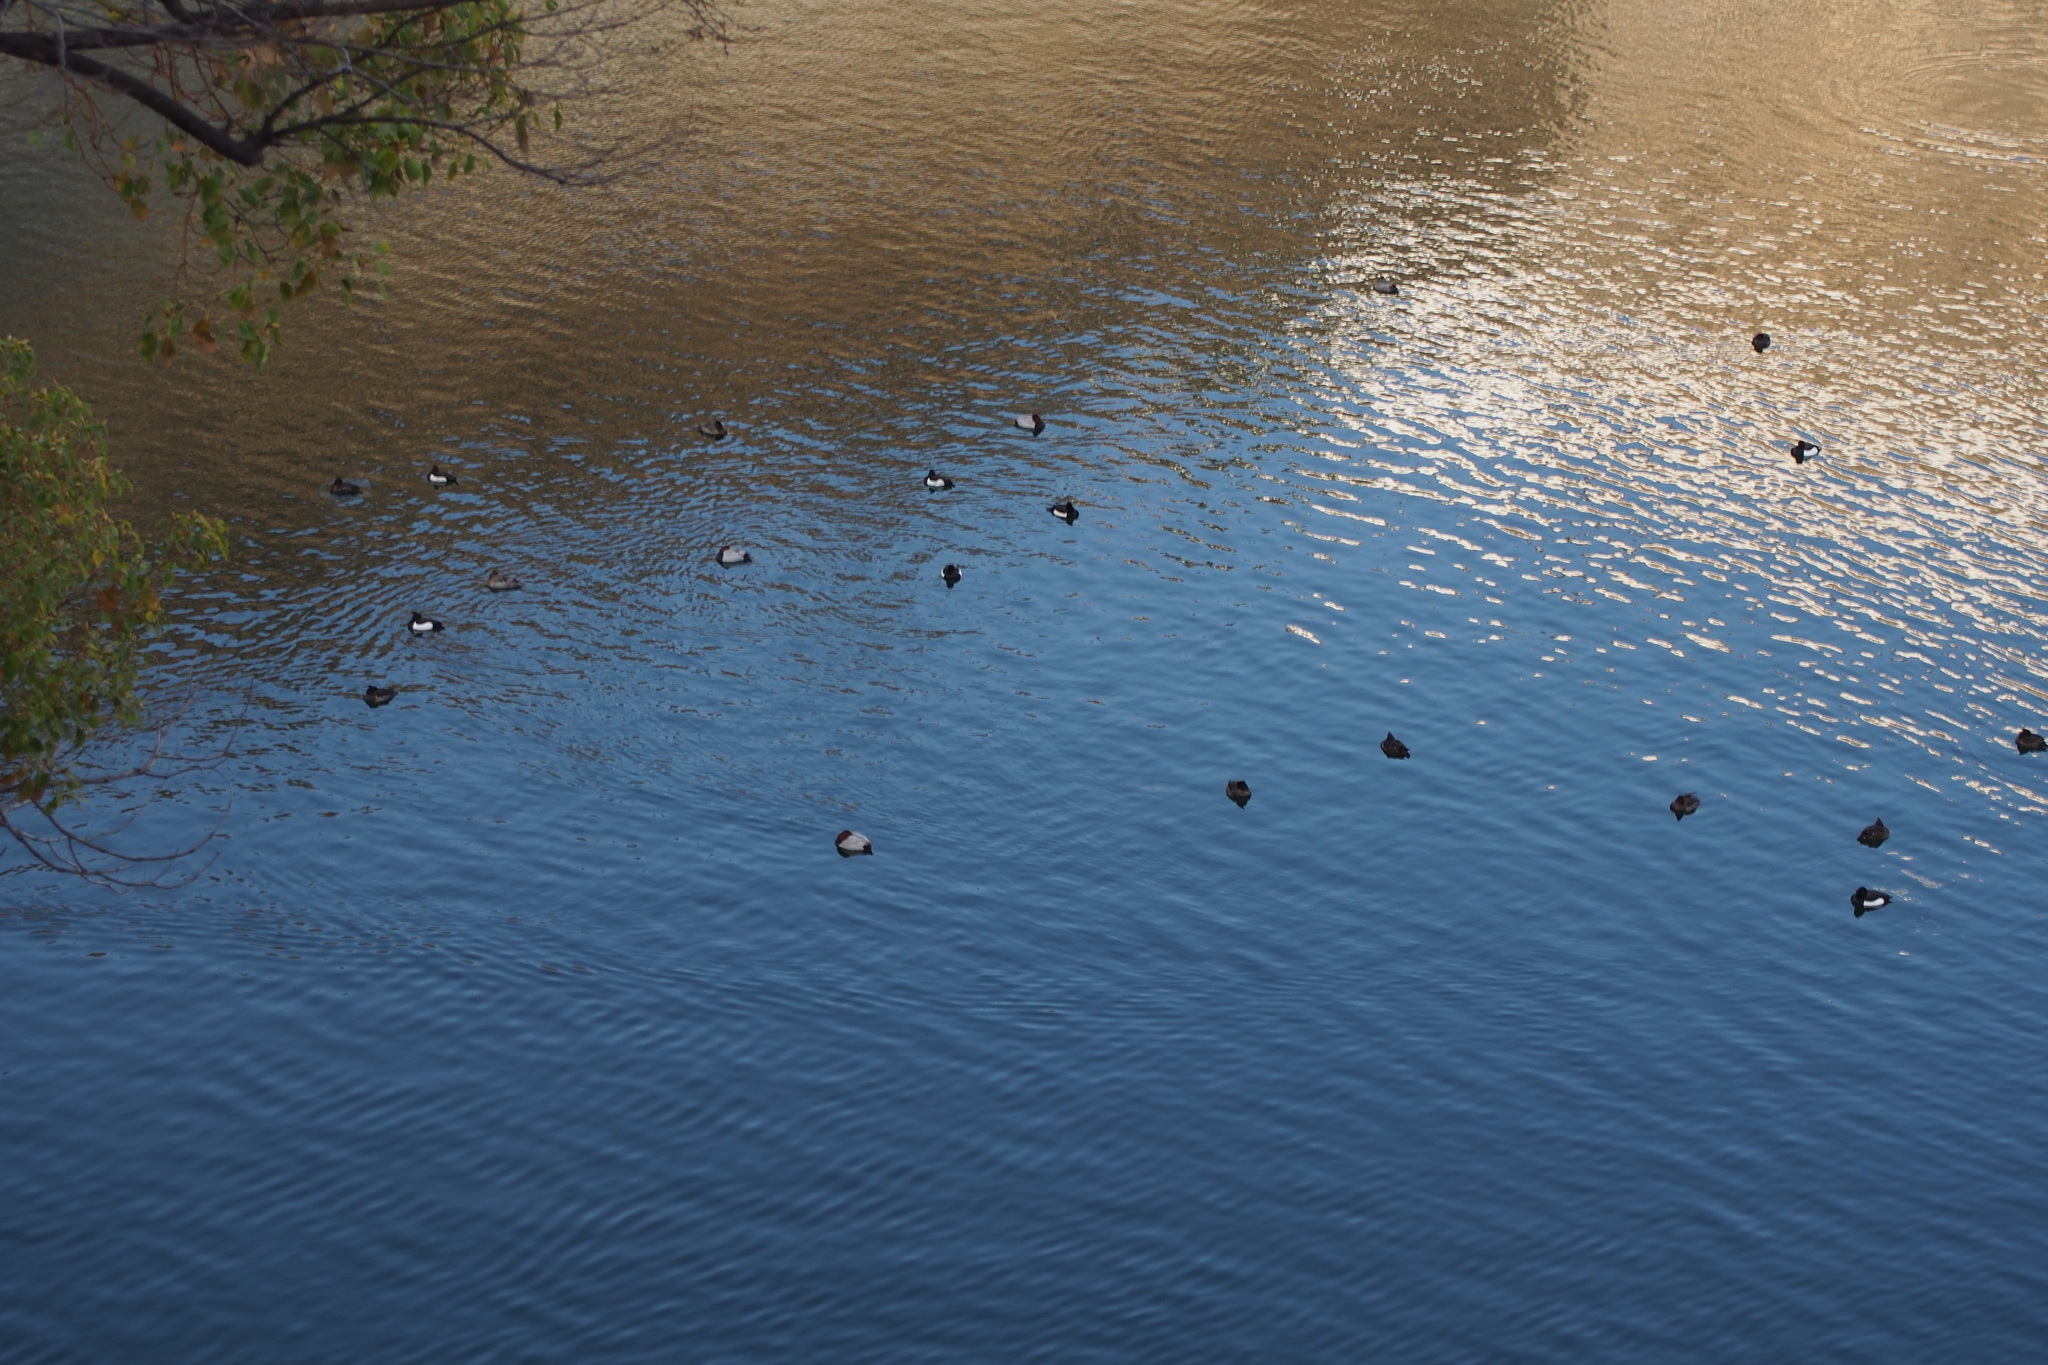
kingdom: Animalia
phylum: Chordata
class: Aves
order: Anseriformes
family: Anatidae
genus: Aythya
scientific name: Aythya fuligula
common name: Tufted duck
